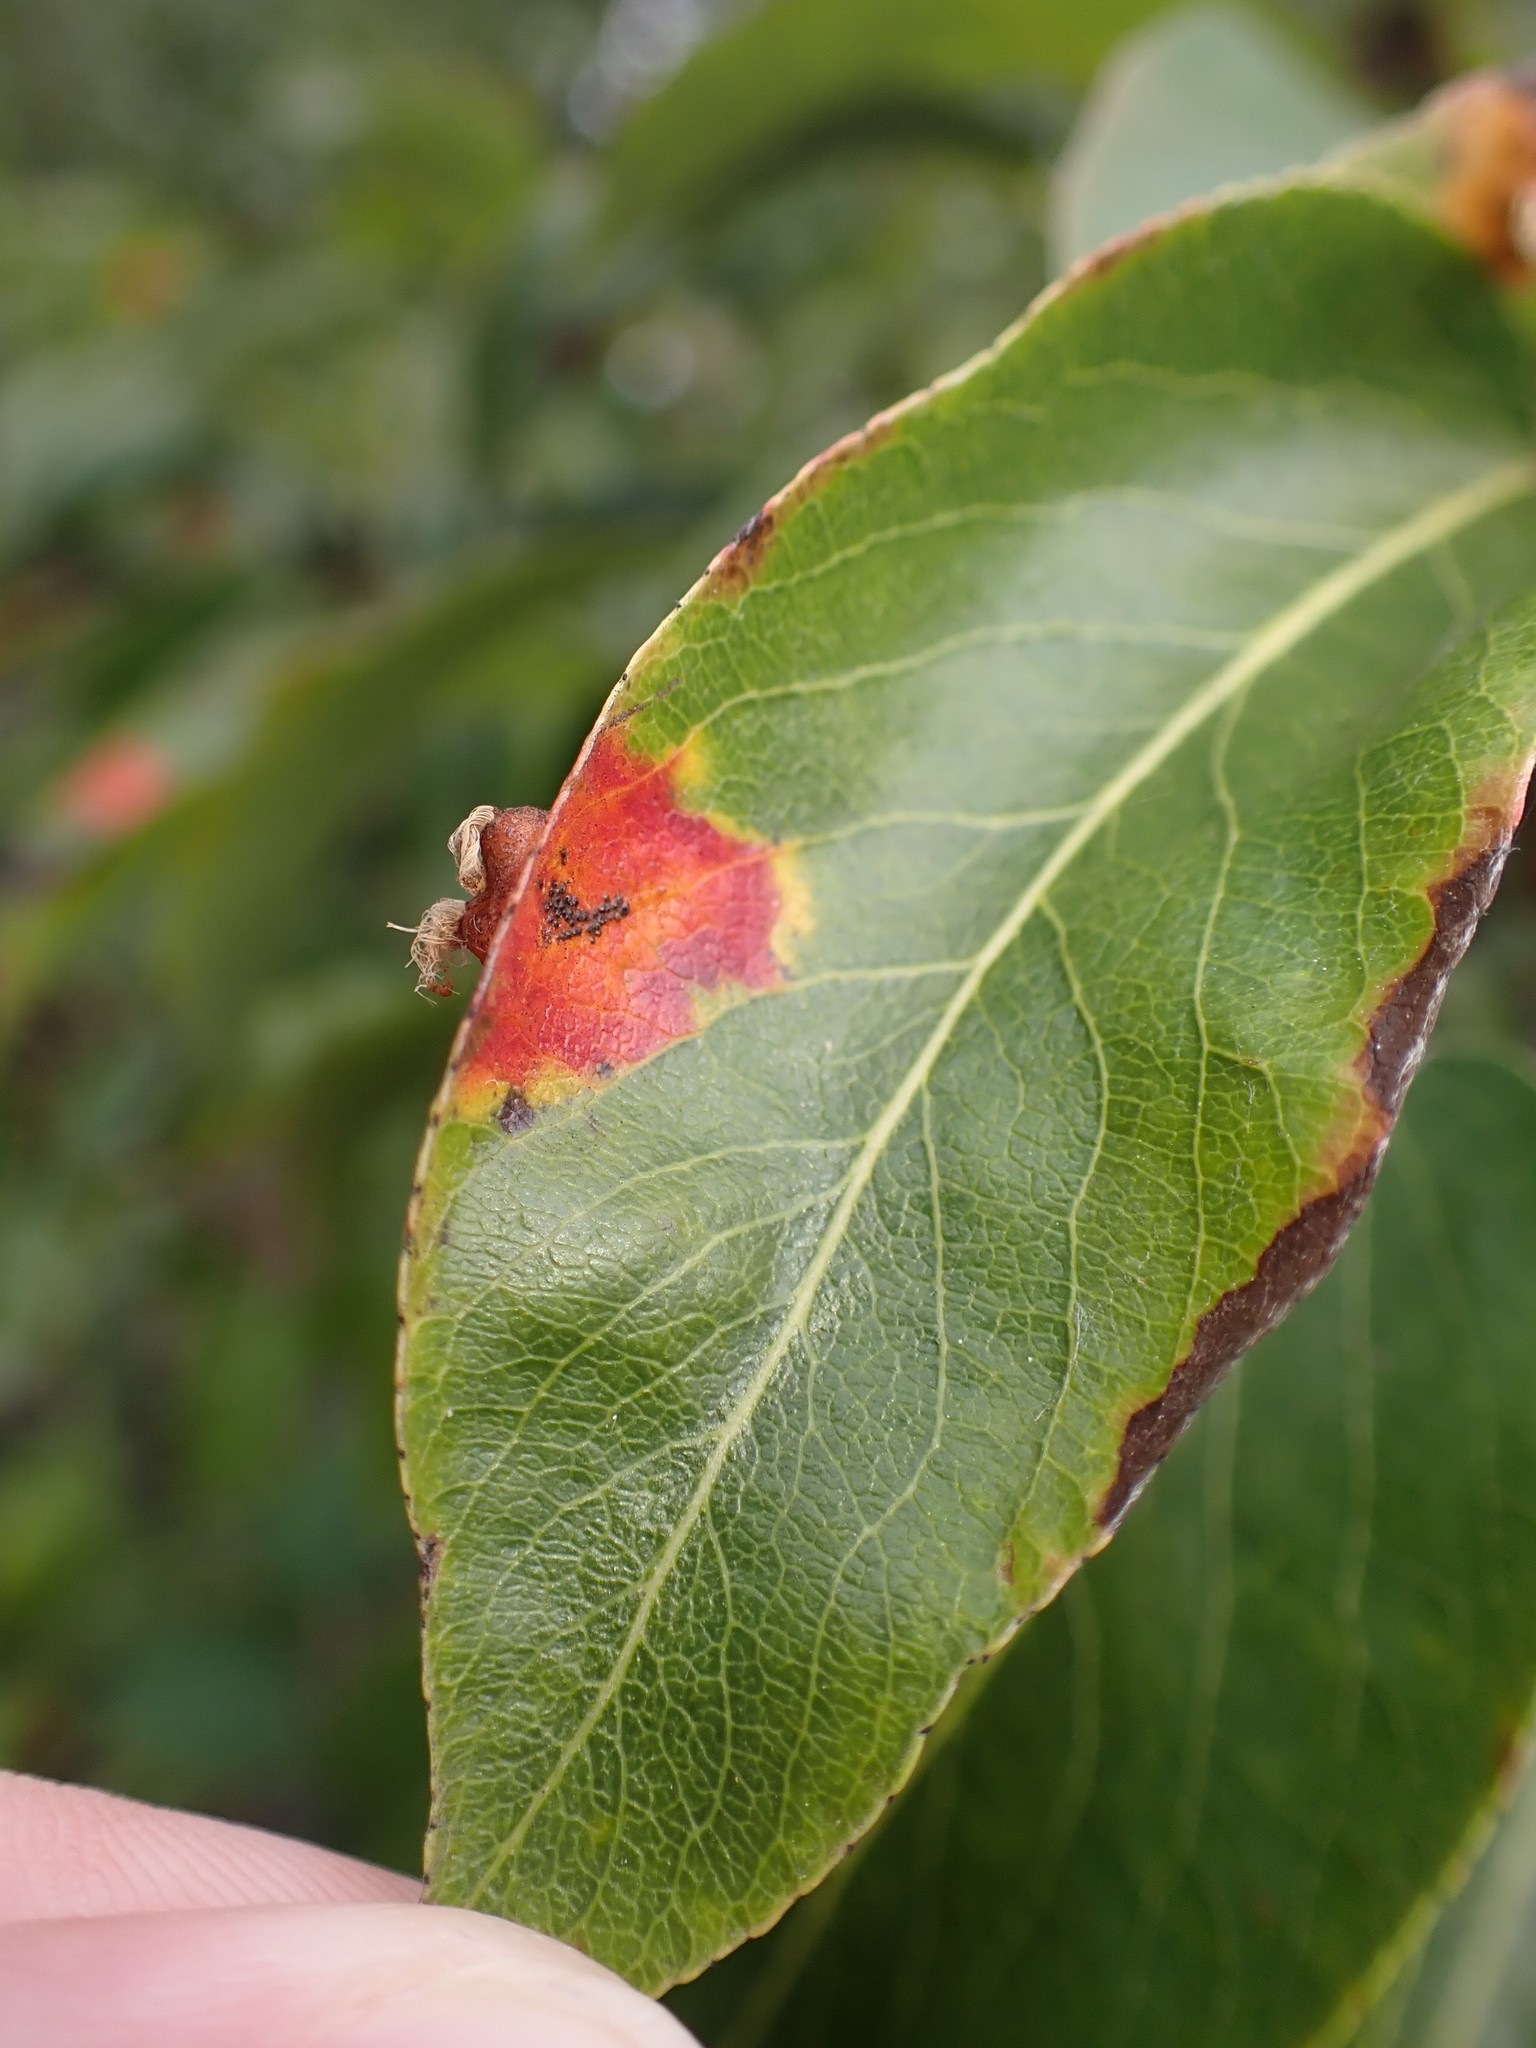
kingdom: Fungi
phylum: Basidiomycota
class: Pucciniomycetes
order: Pucciniales
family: Gymnosporangiaceae
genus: Gymnosporangium
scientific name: Gymnosporangium sabinae
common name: Pear trellis rust fungus
